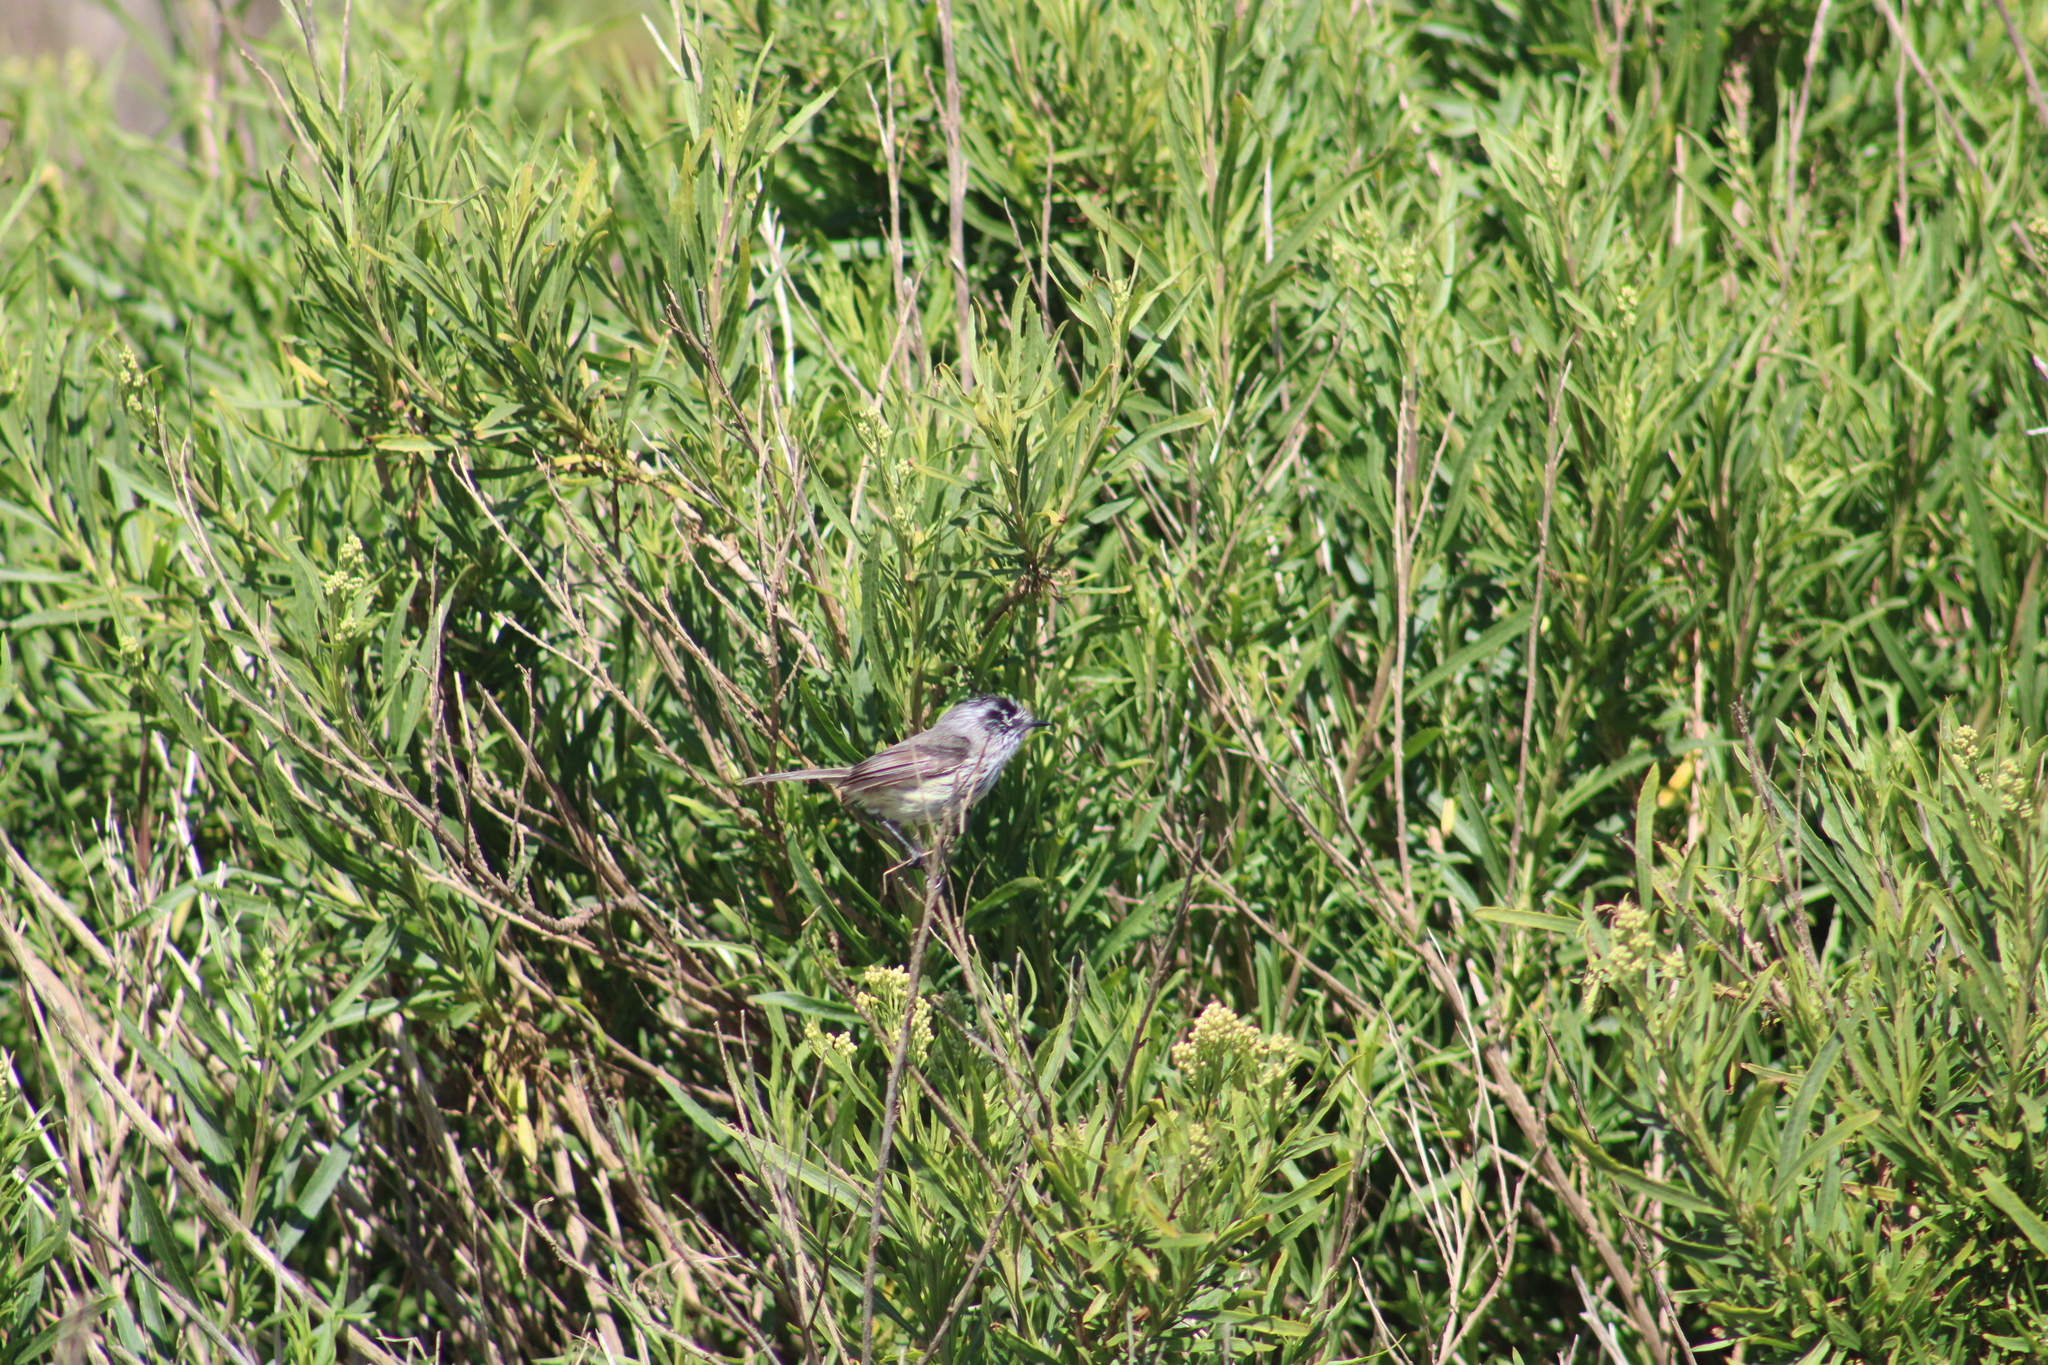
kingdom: Animalia
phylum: Chordata
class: Aves
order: Passeriformes
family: Tyrannidae
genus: Anairetes
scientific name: Anairetes parulus
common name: Tufted tit-tyrant
